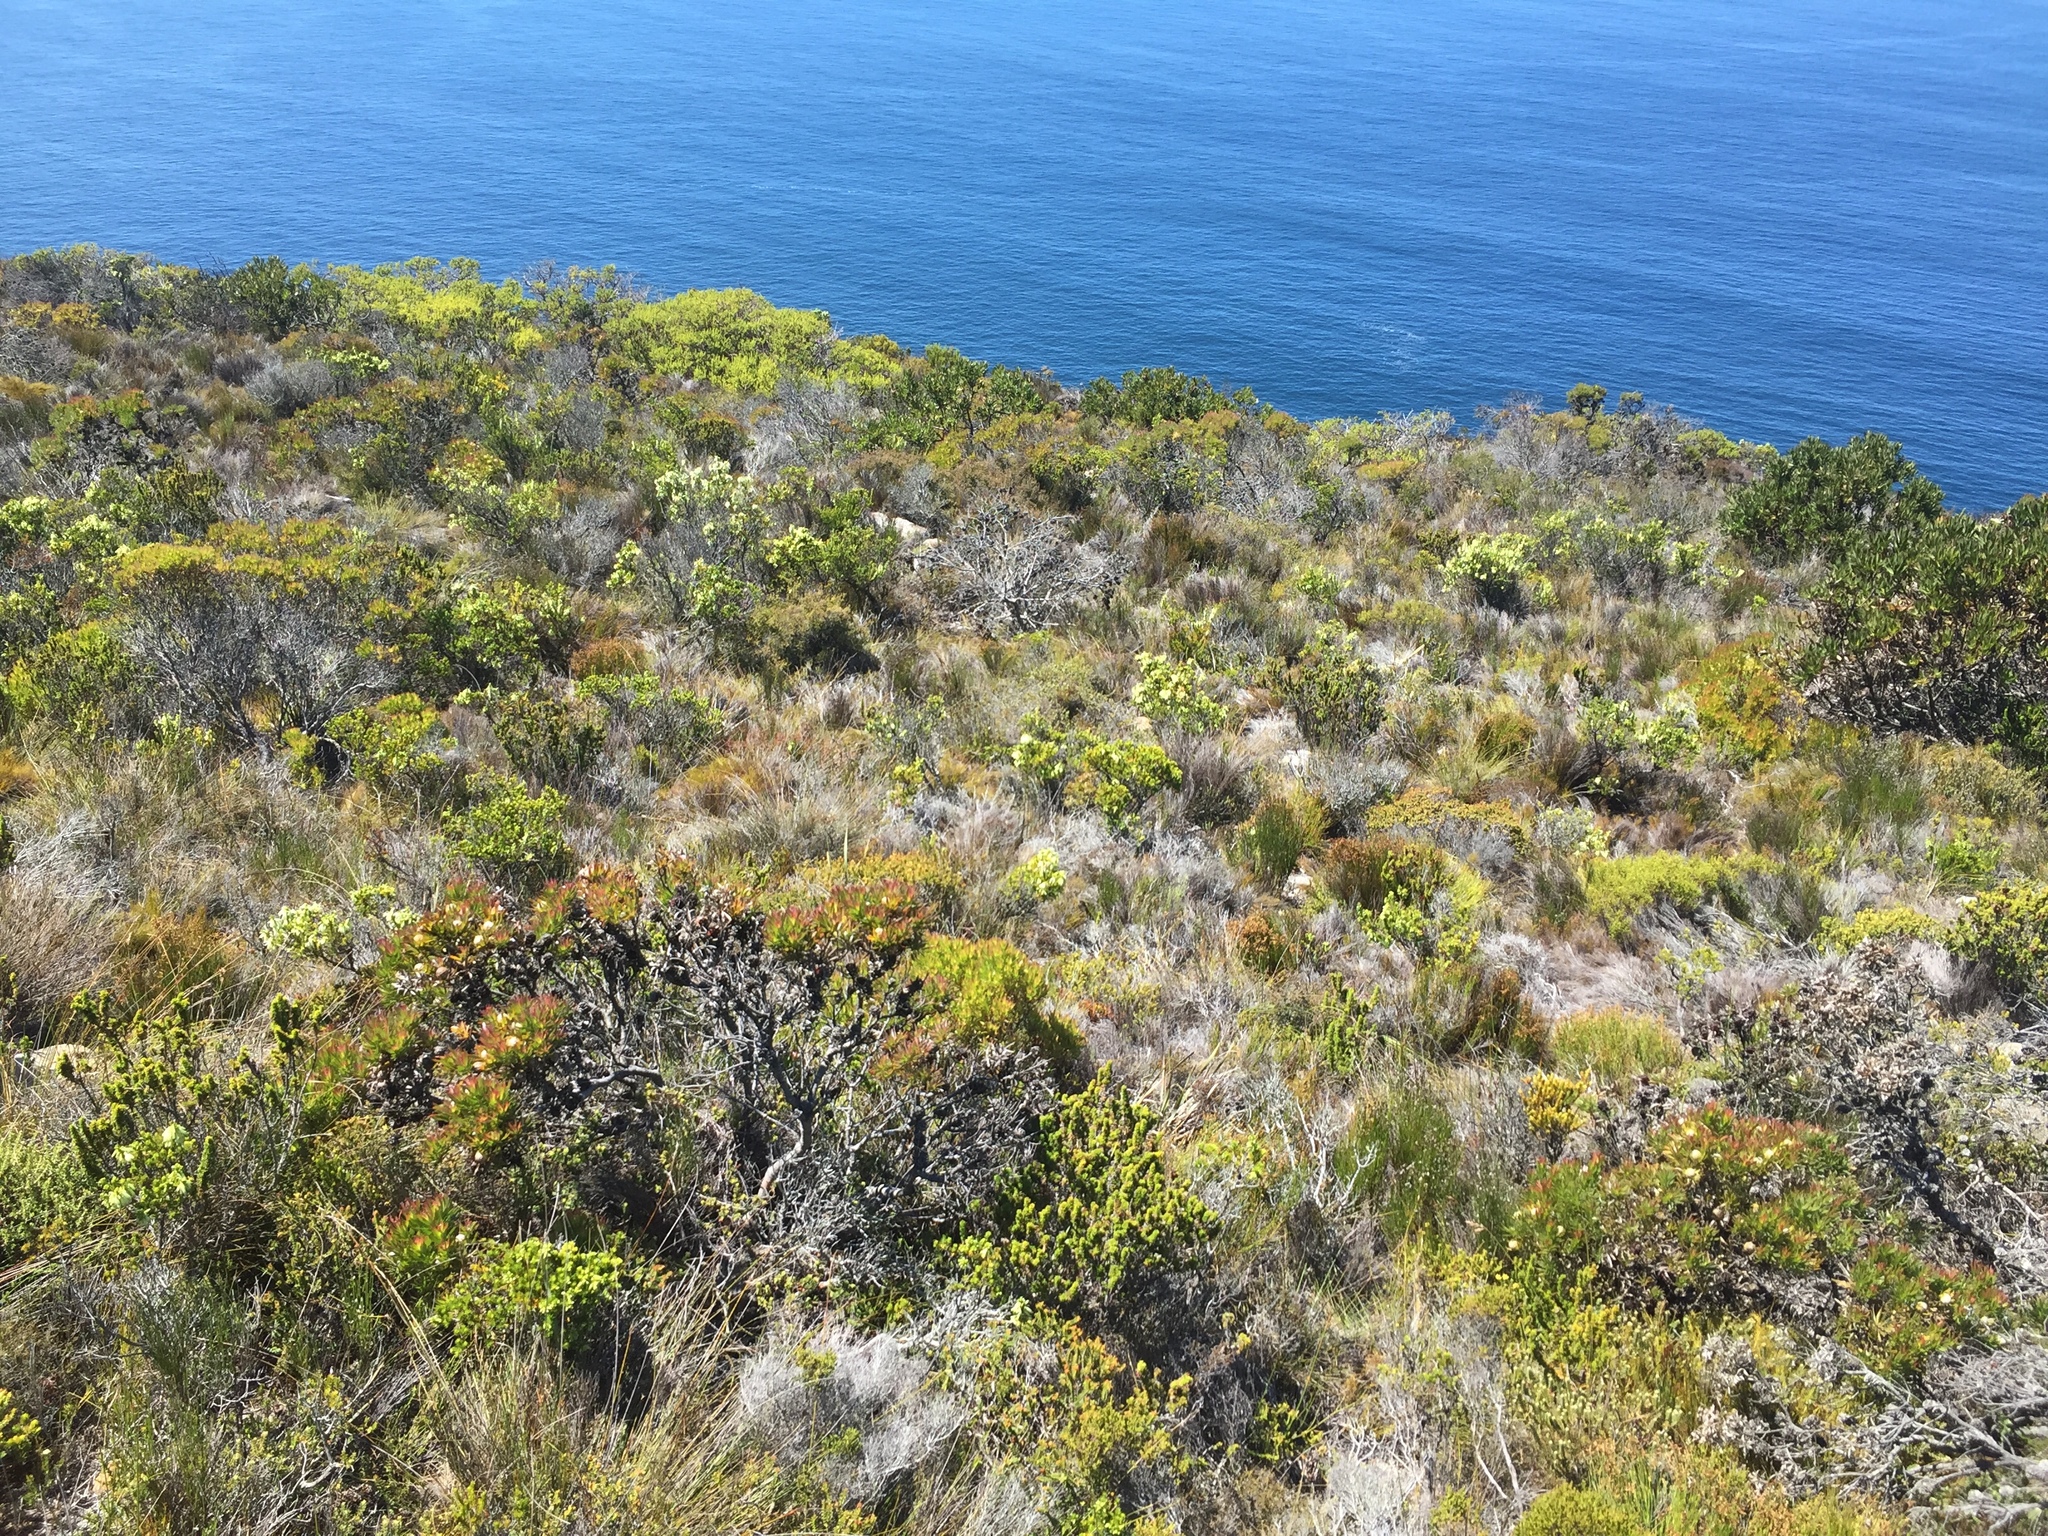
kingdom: Plantae
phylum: Tracheophyta
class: Magnoliopsida
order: Ericales
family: Ericaceae
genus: Erica
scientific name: Erica mammosa
